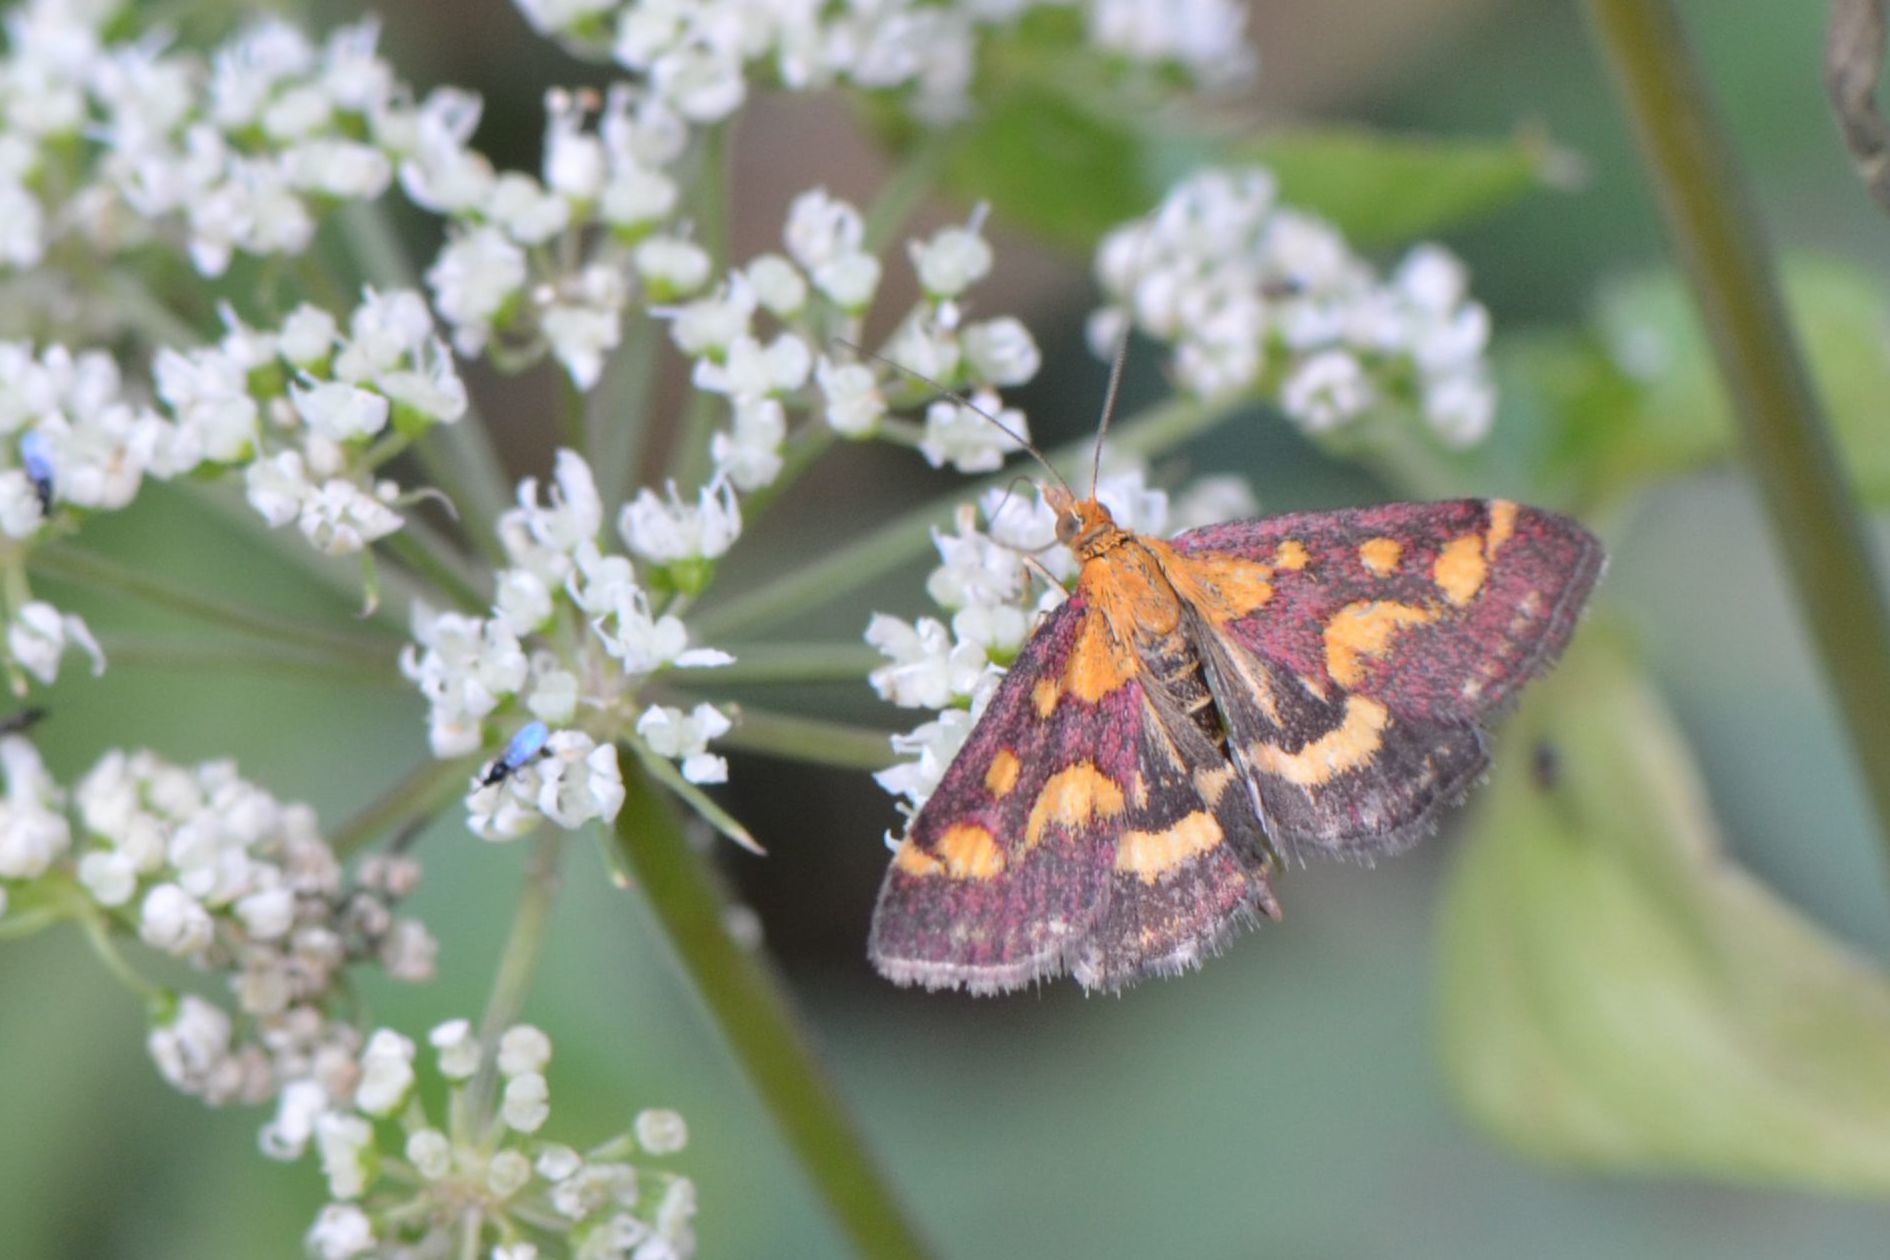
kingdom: Animalia
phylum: Arthropoda
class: Insecta
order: Lepidoptera
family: Crambidae
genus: Pyrausta
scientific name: Pyrausta purpuralis
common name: Common purple & gold
